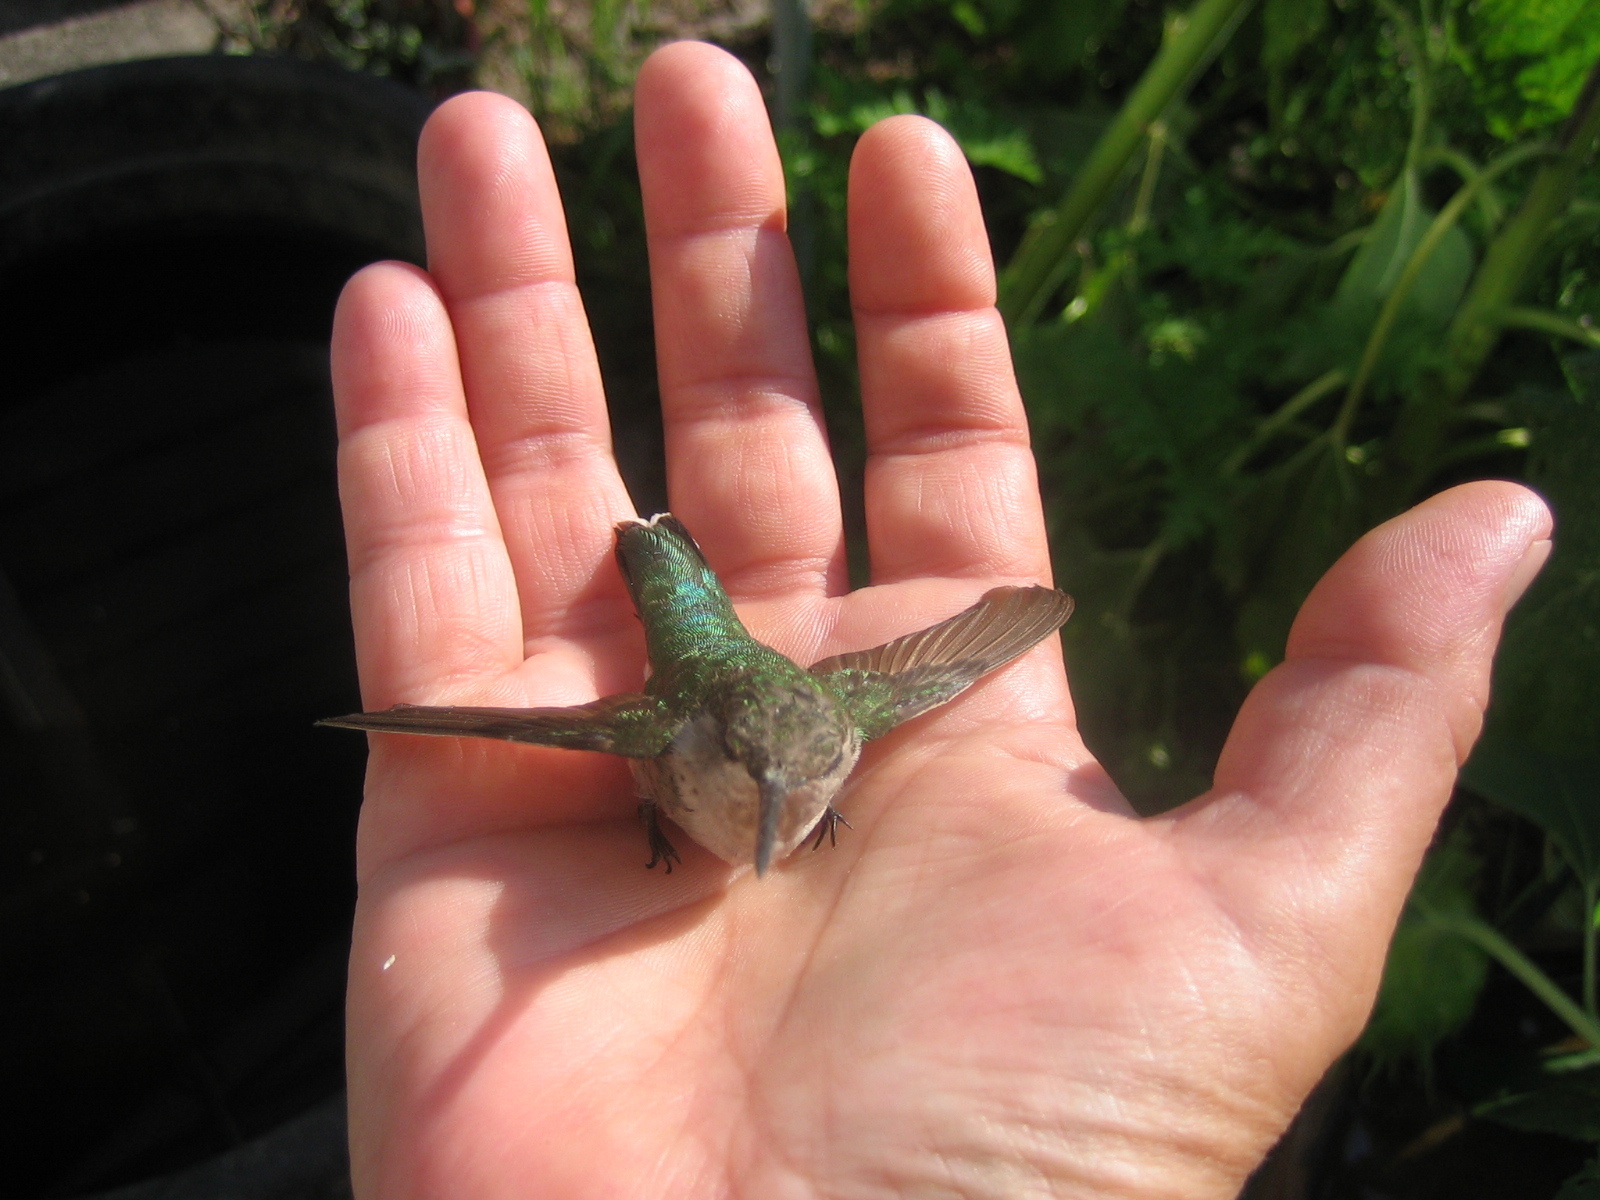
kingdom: Animalia
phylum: Chordata
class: Aves
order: Apodiformes
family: Trochilidae
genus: Archilochus
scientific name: Archilochus colubris
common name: Ruby-throated hummingbird
